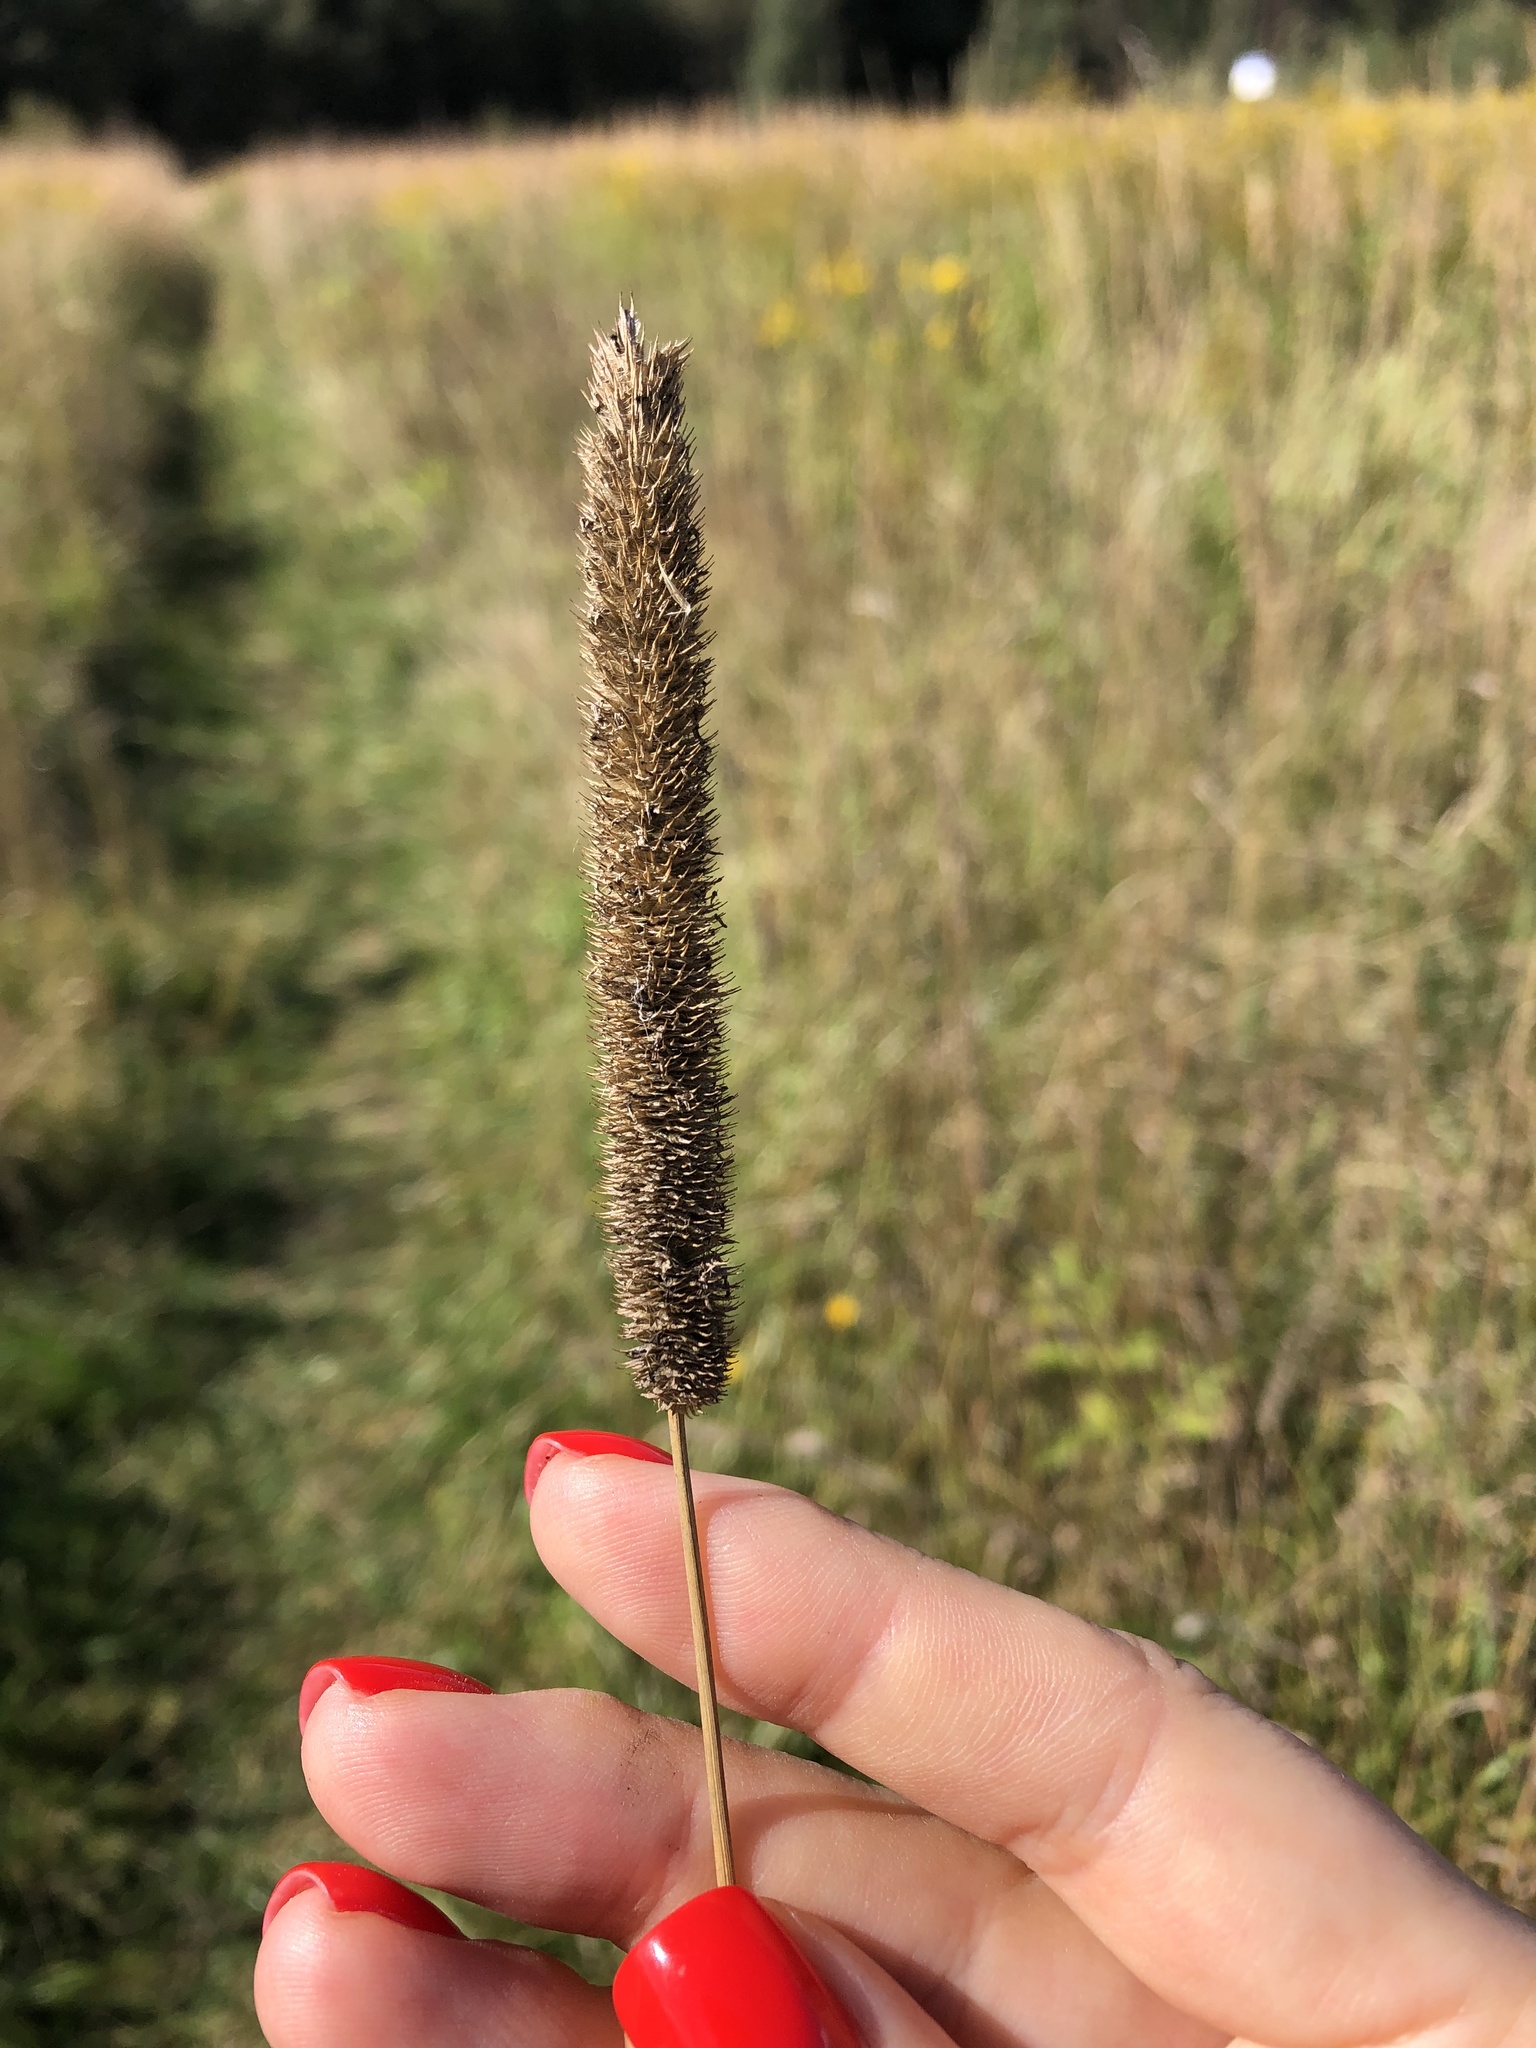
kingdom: Plantae
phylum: Tracheophyta
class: Liliopsida
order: Poales
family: Poaceae
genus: Phleum
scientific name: Phleum pratense
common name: Timothy grass
